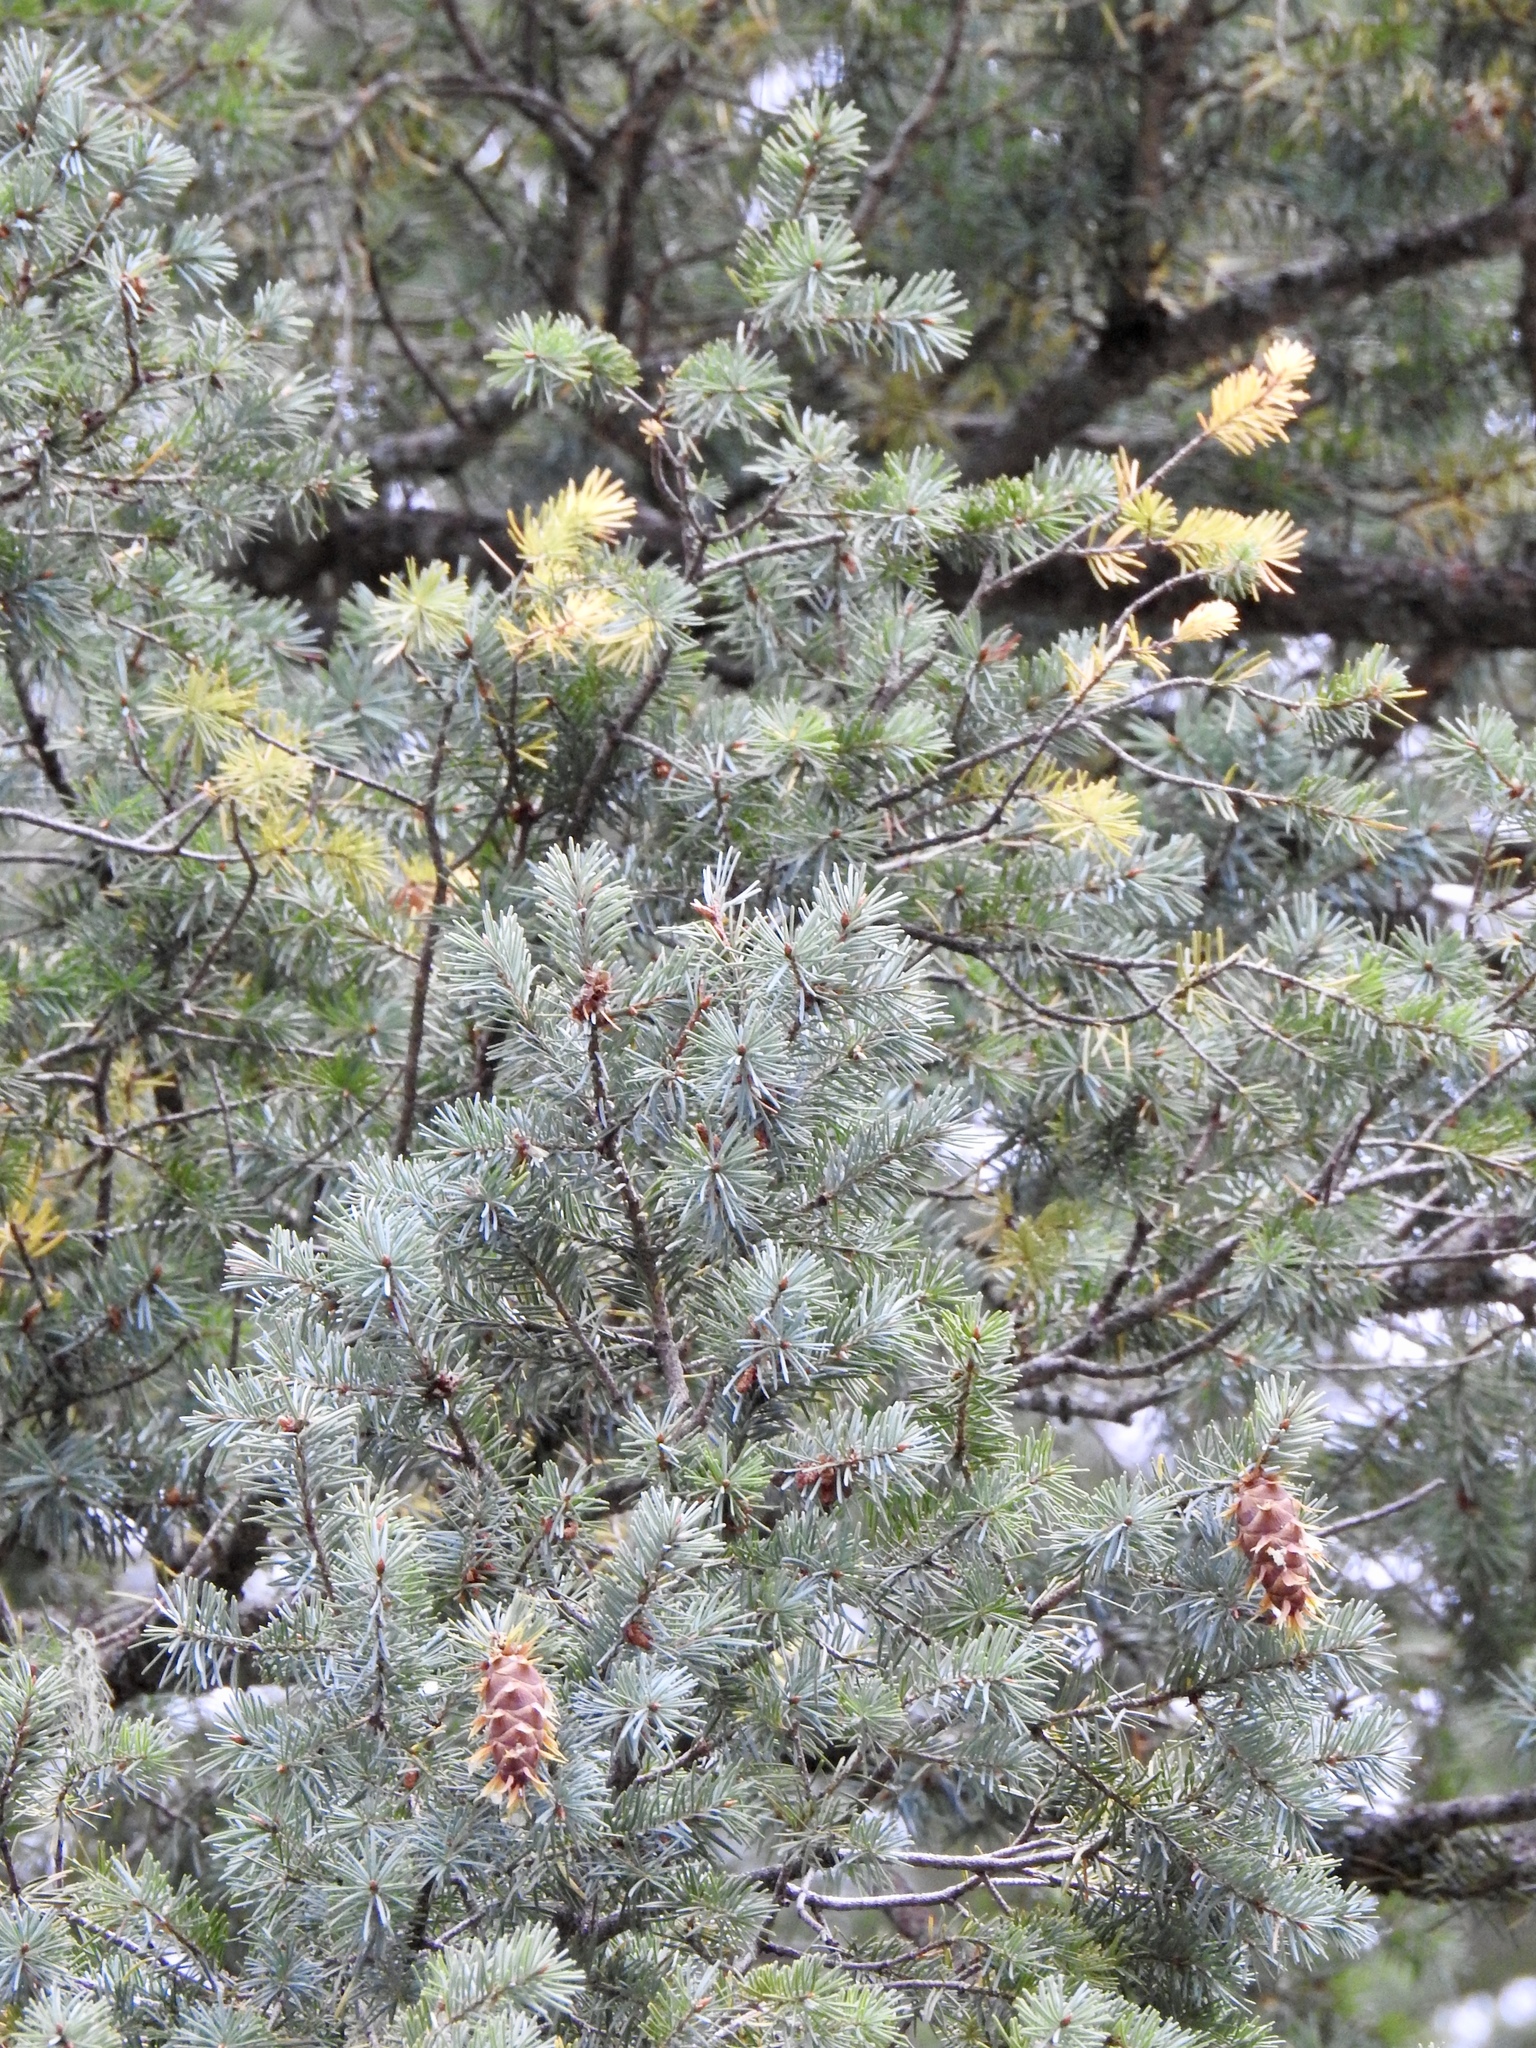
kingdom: Plantae
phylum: Tracheophyta
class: Pinopsida
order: Pinales
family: Pinaceae
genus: Pseudotsuga
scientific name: Pseudotsuga menziesii
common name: Douglas fir
